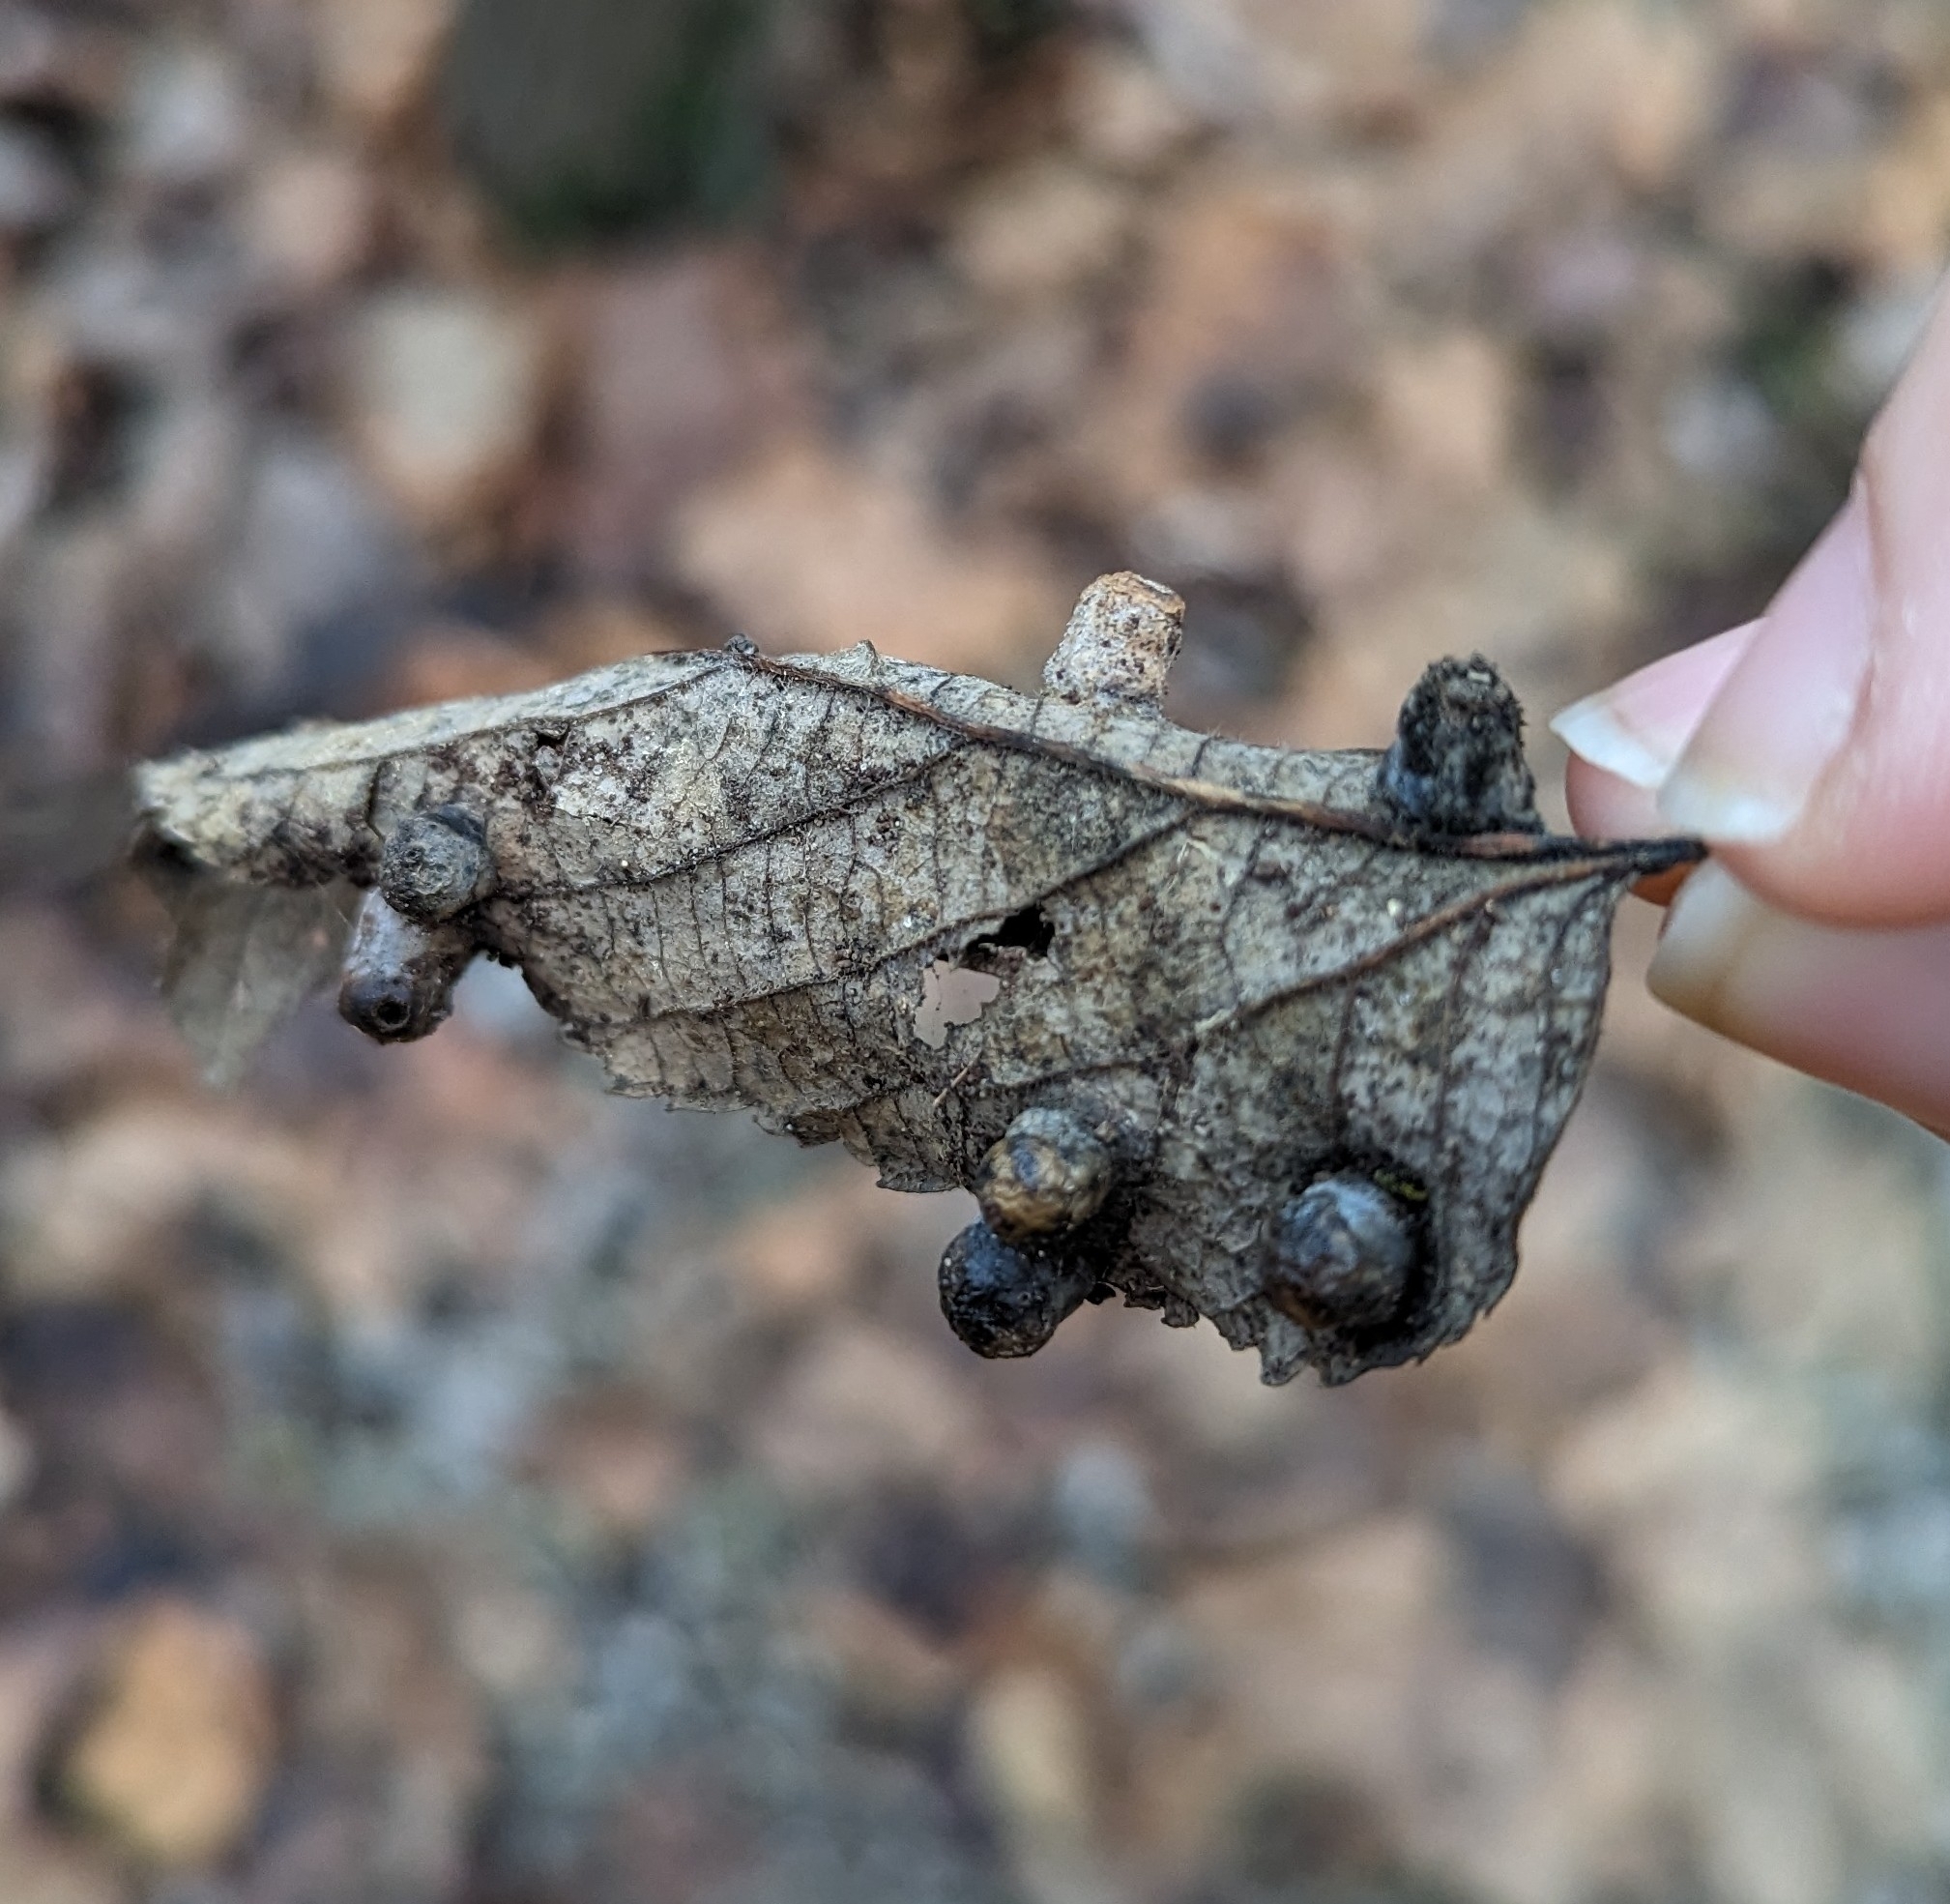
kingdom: Animalia
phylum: Arthropoda
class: Insecta
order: Hemiptera
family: Aphalaridae
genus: Pachypsylla
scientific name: Pachypsylla celtidismamma
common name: Hackberry nipplegall psyllid
